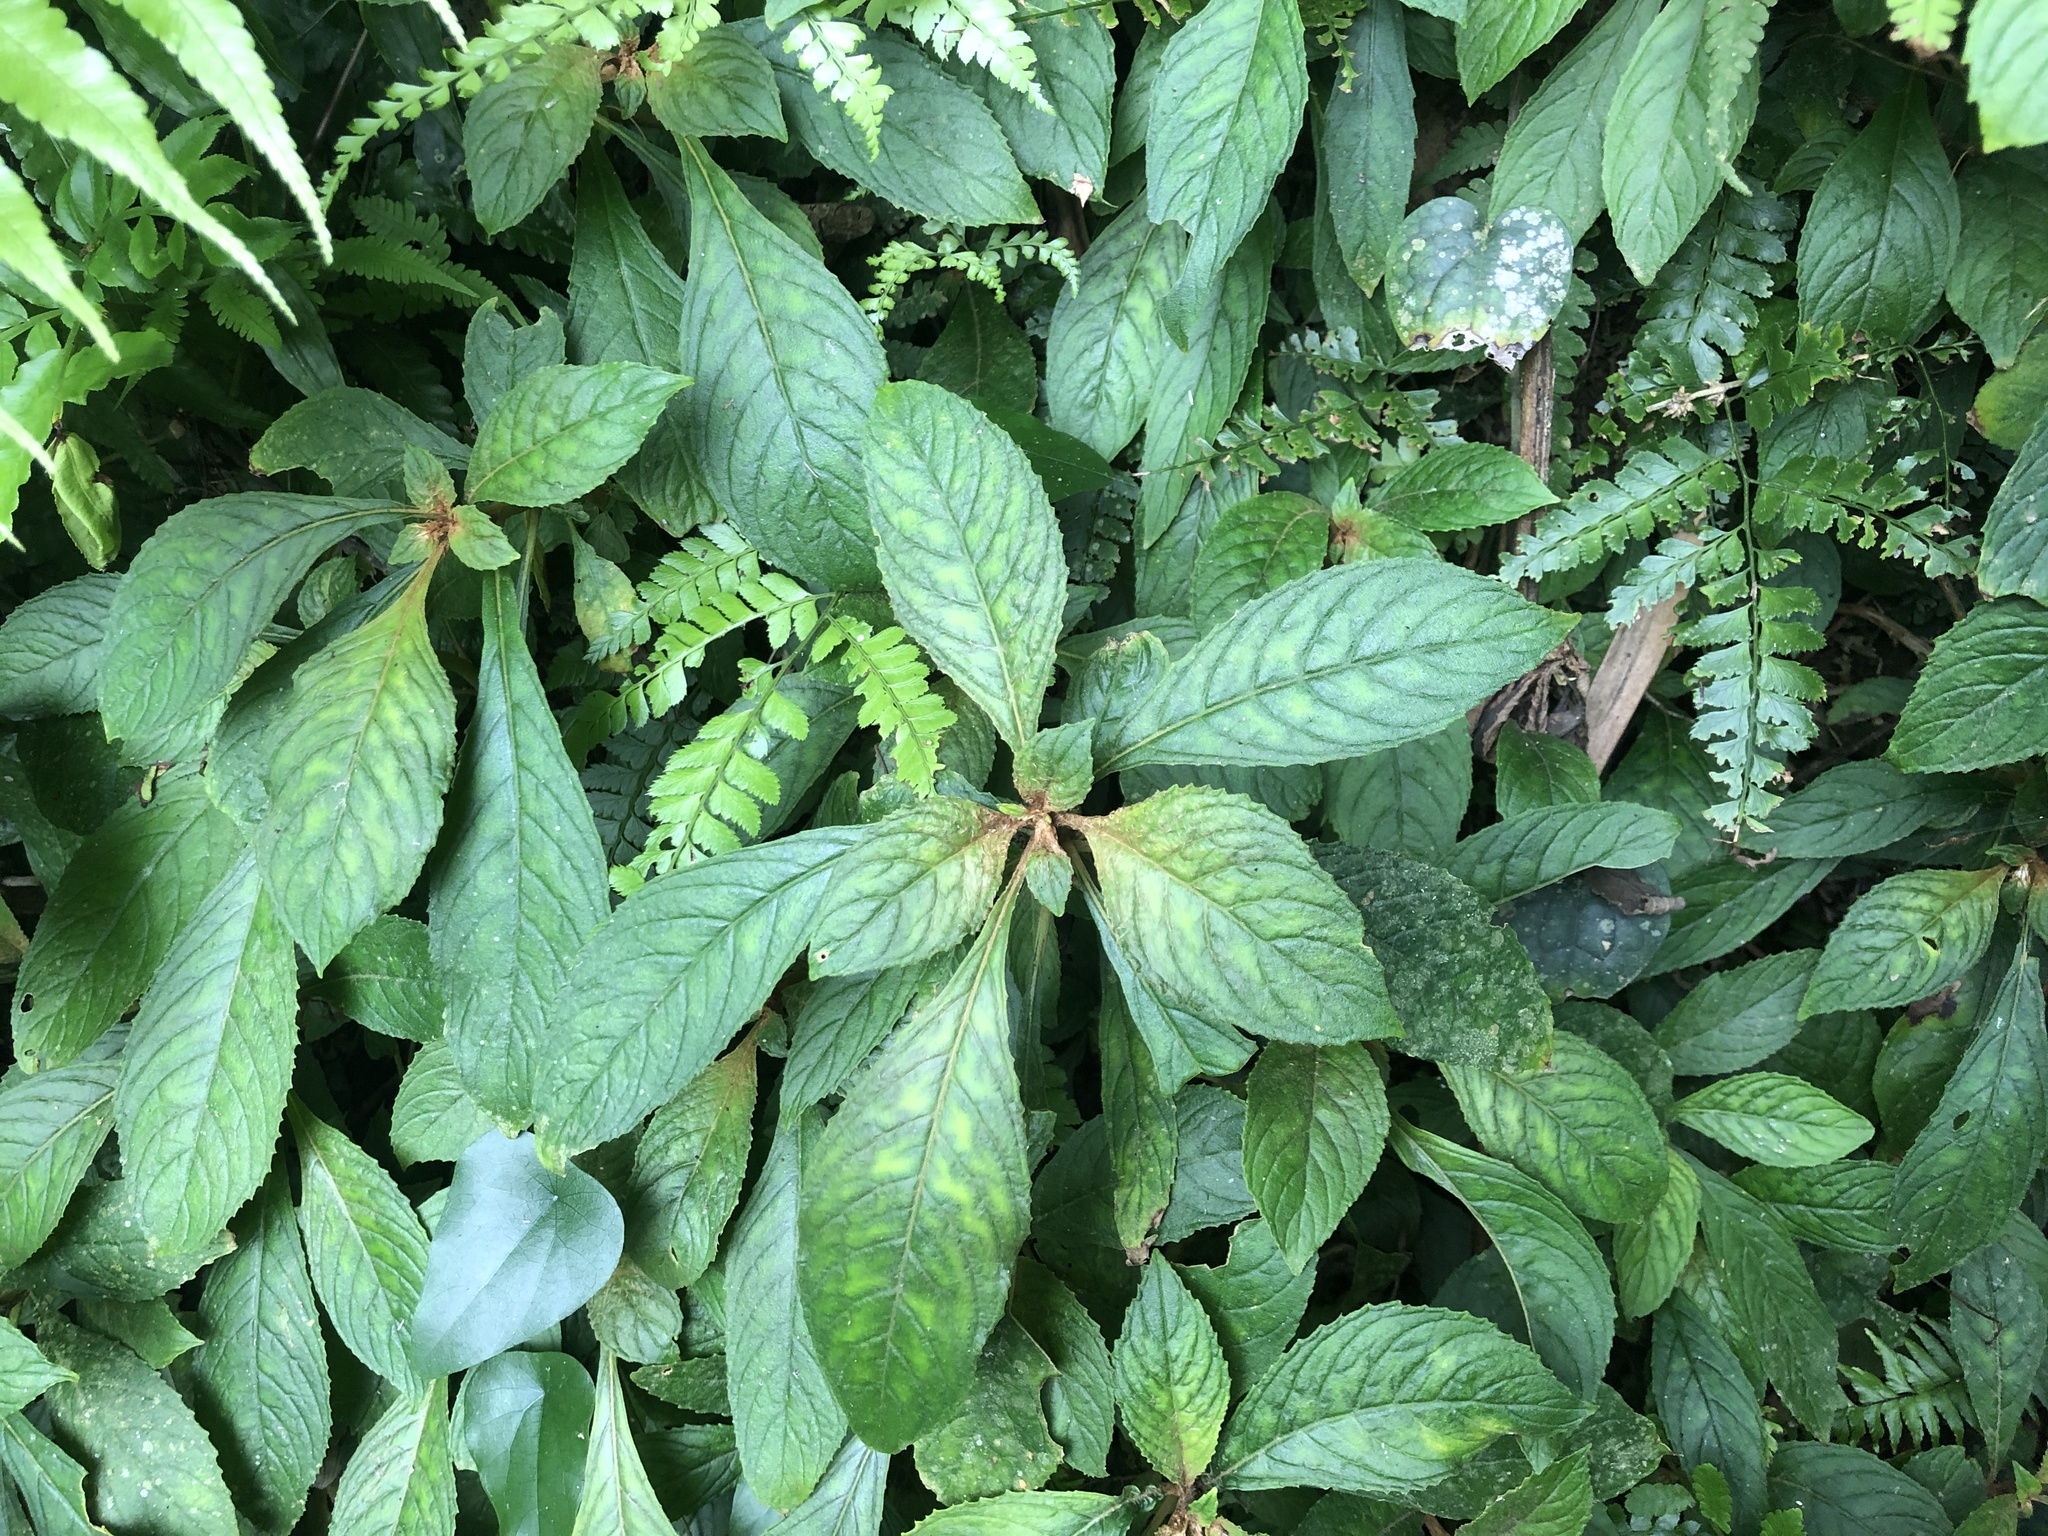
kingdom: Plantae
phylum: Tracheophyta
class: Magnoliopsida
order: Lamiales
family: Gesneriaceae
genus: Rhynchotechum
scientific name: Rhynchotechum discolor
